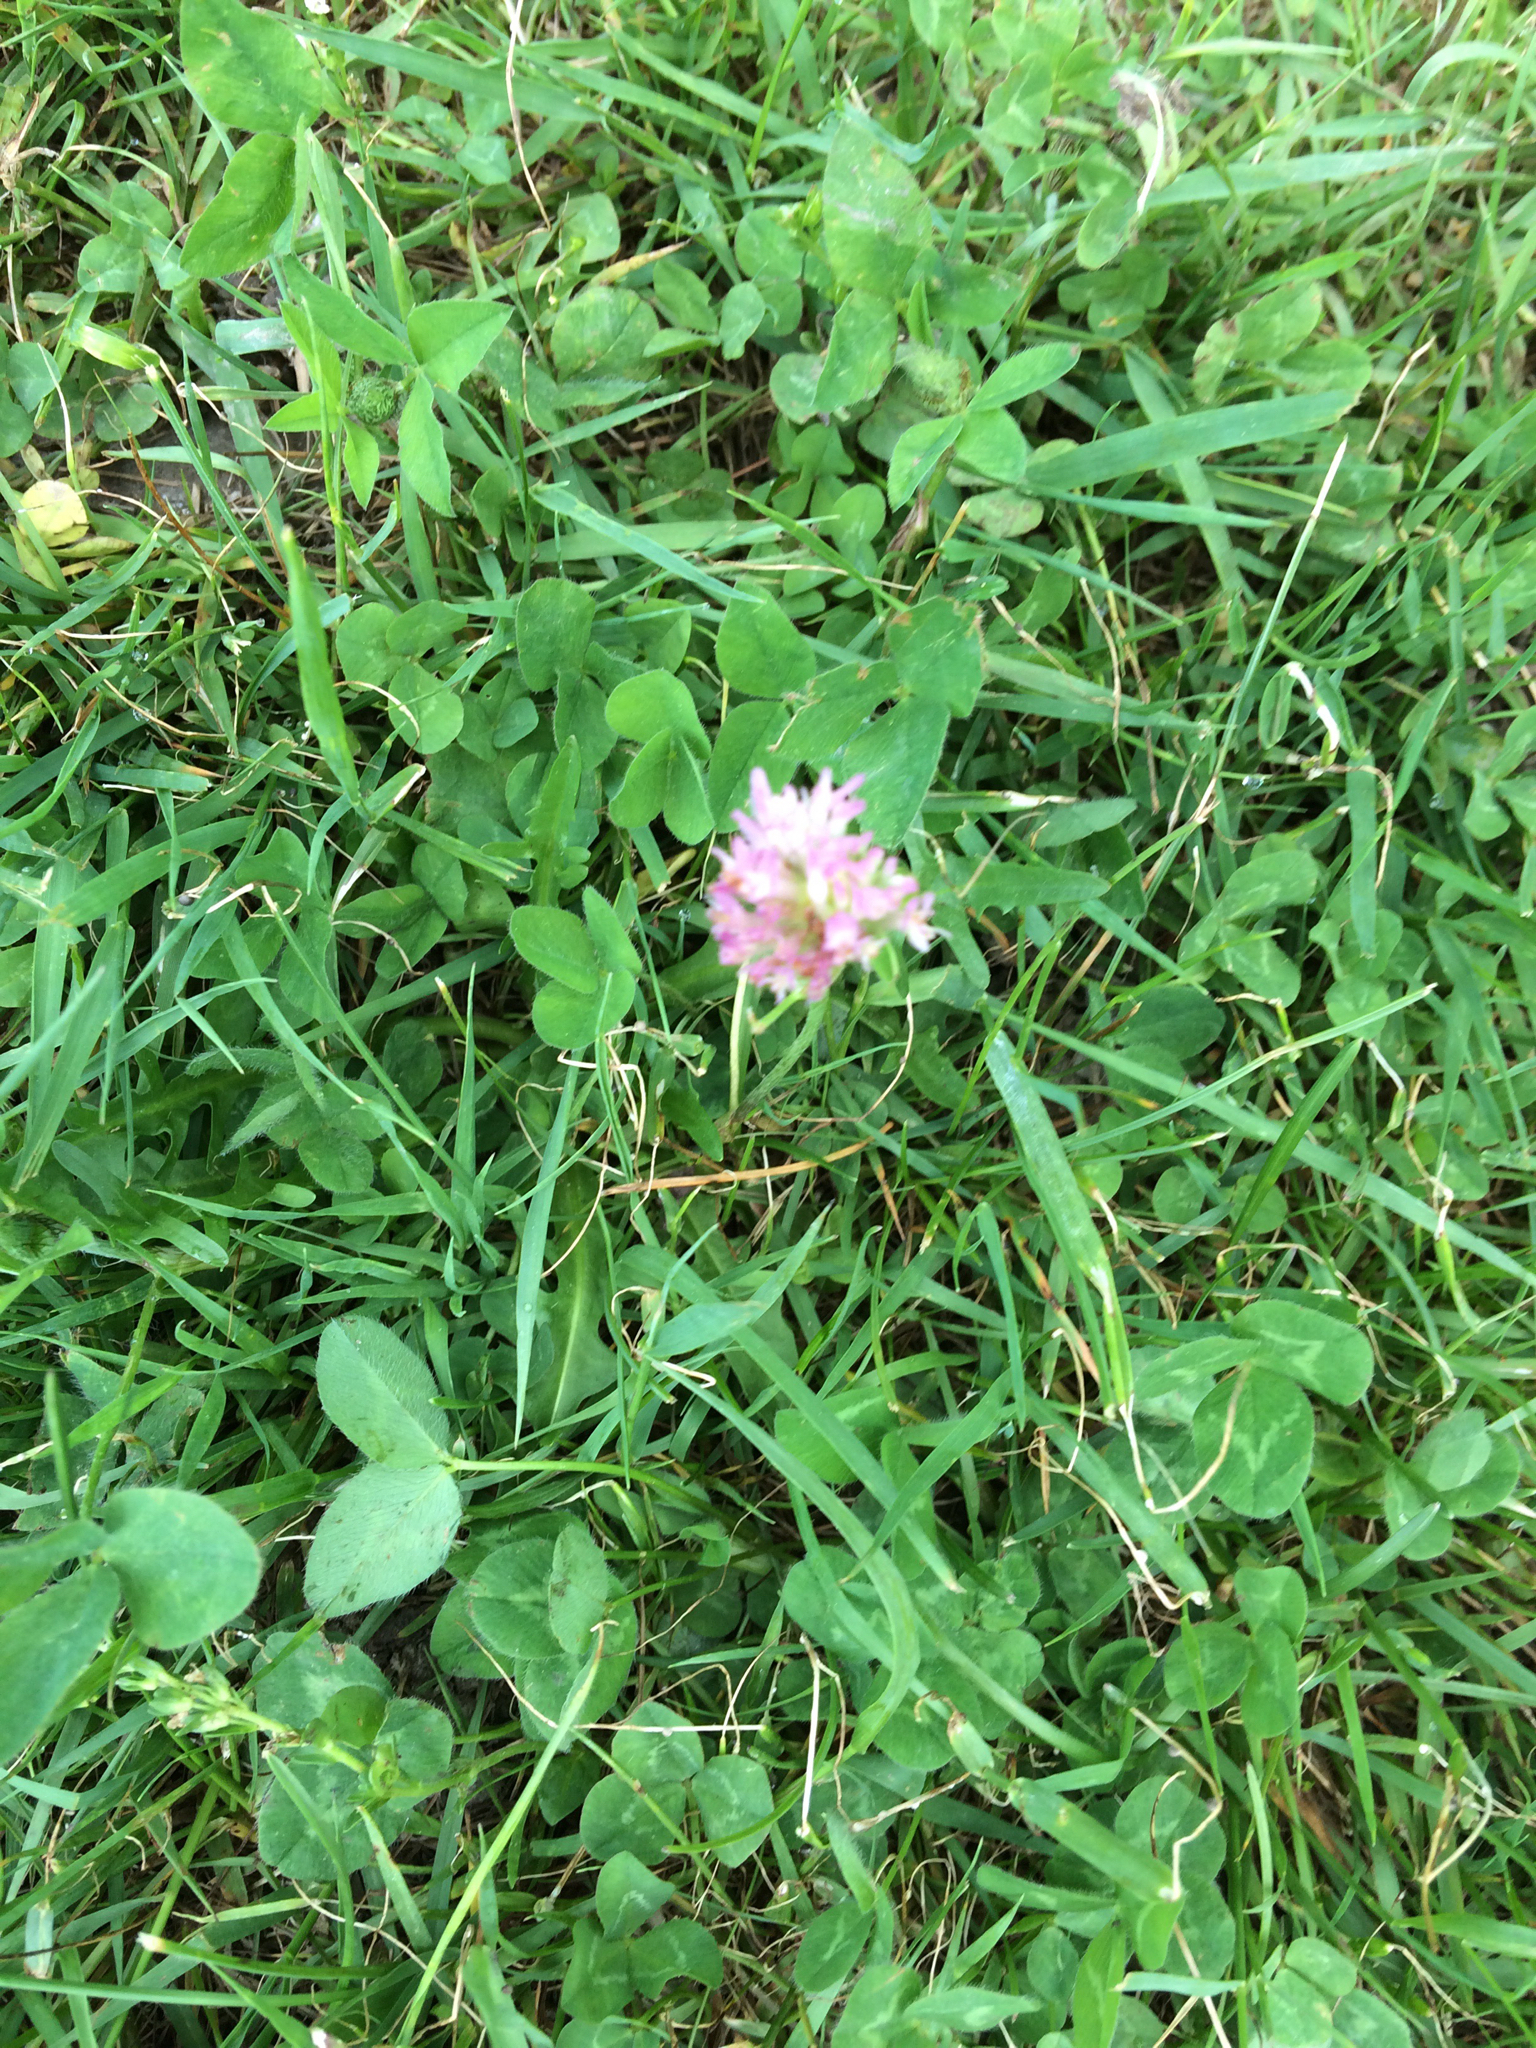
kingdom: Plantae
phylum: Tracheophyta
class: Magnoliopsida
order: Fabales
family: Fabaceae
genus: Trifolium
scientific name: Trifolium pratense
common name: Red clover
